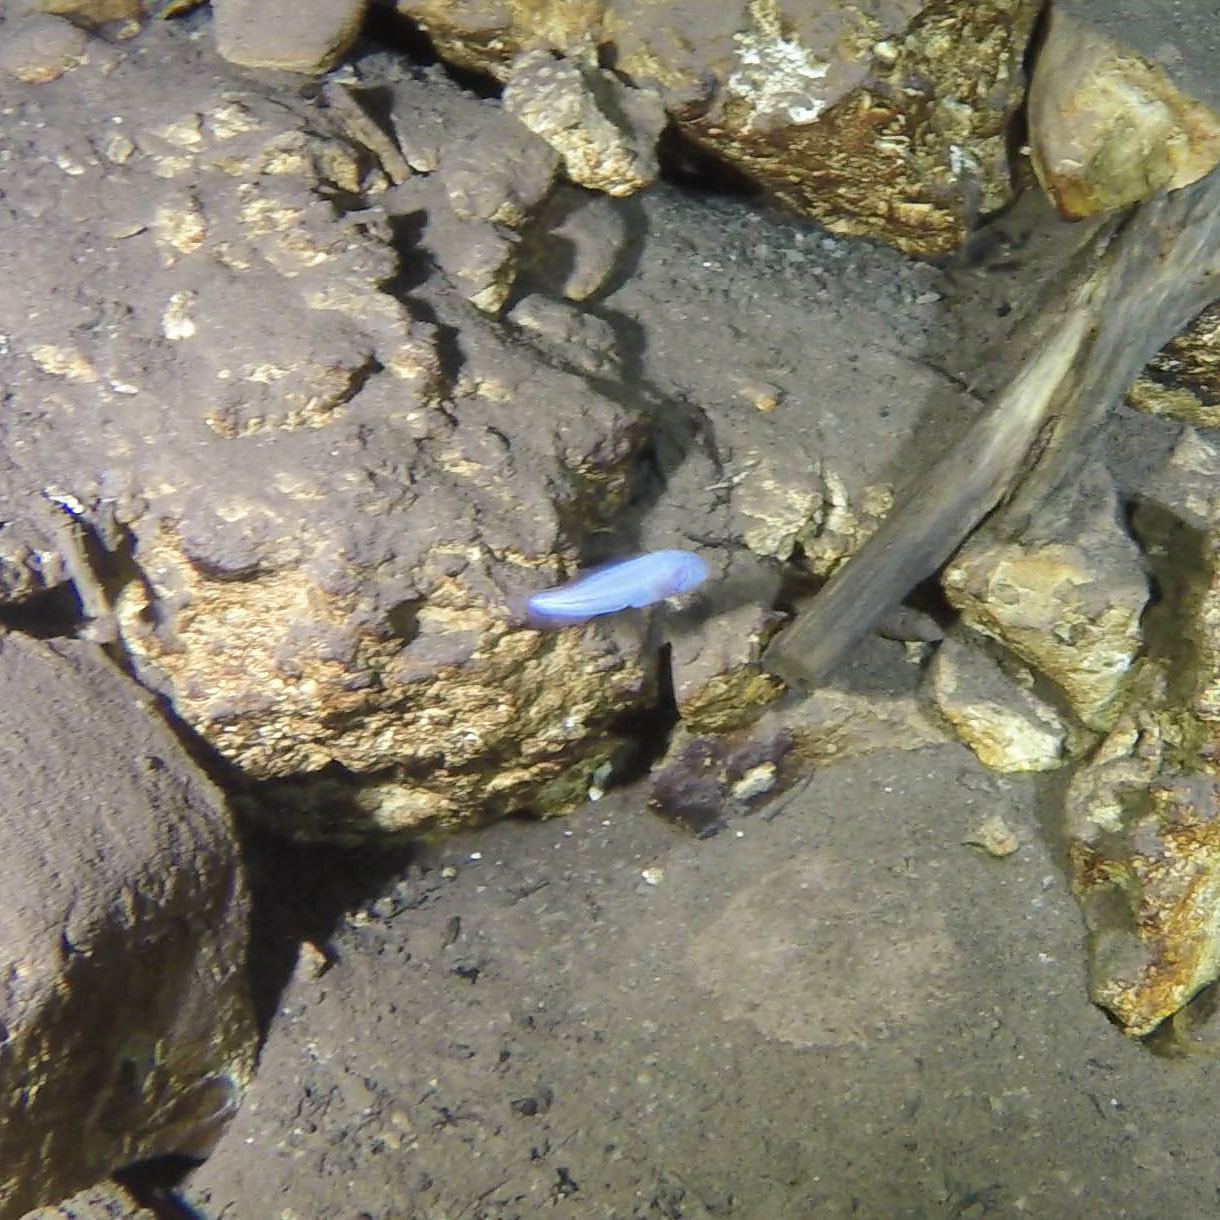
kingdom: Animalia
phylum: Chordata
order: Ophidiiformes
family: Bythitidae
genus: Typhliasina
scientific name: Typhliasina pearsei
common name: Dama ciega blanca
